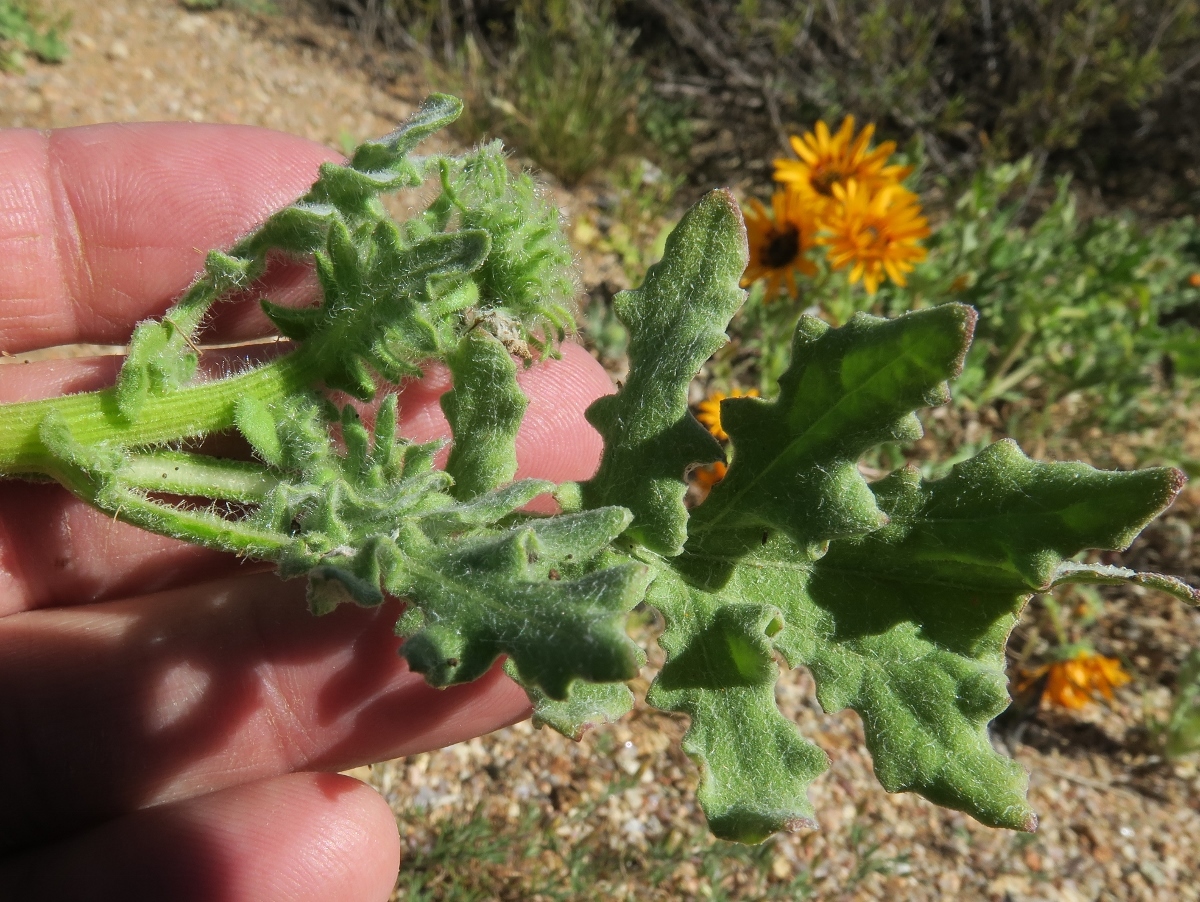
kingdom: Plantae
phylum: Tracheophyta
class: Magnoliopsida
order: Asterales
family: Asteraceae
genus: Arctotis
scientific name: Arctotis fastuosa
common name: Monarch of the veld
